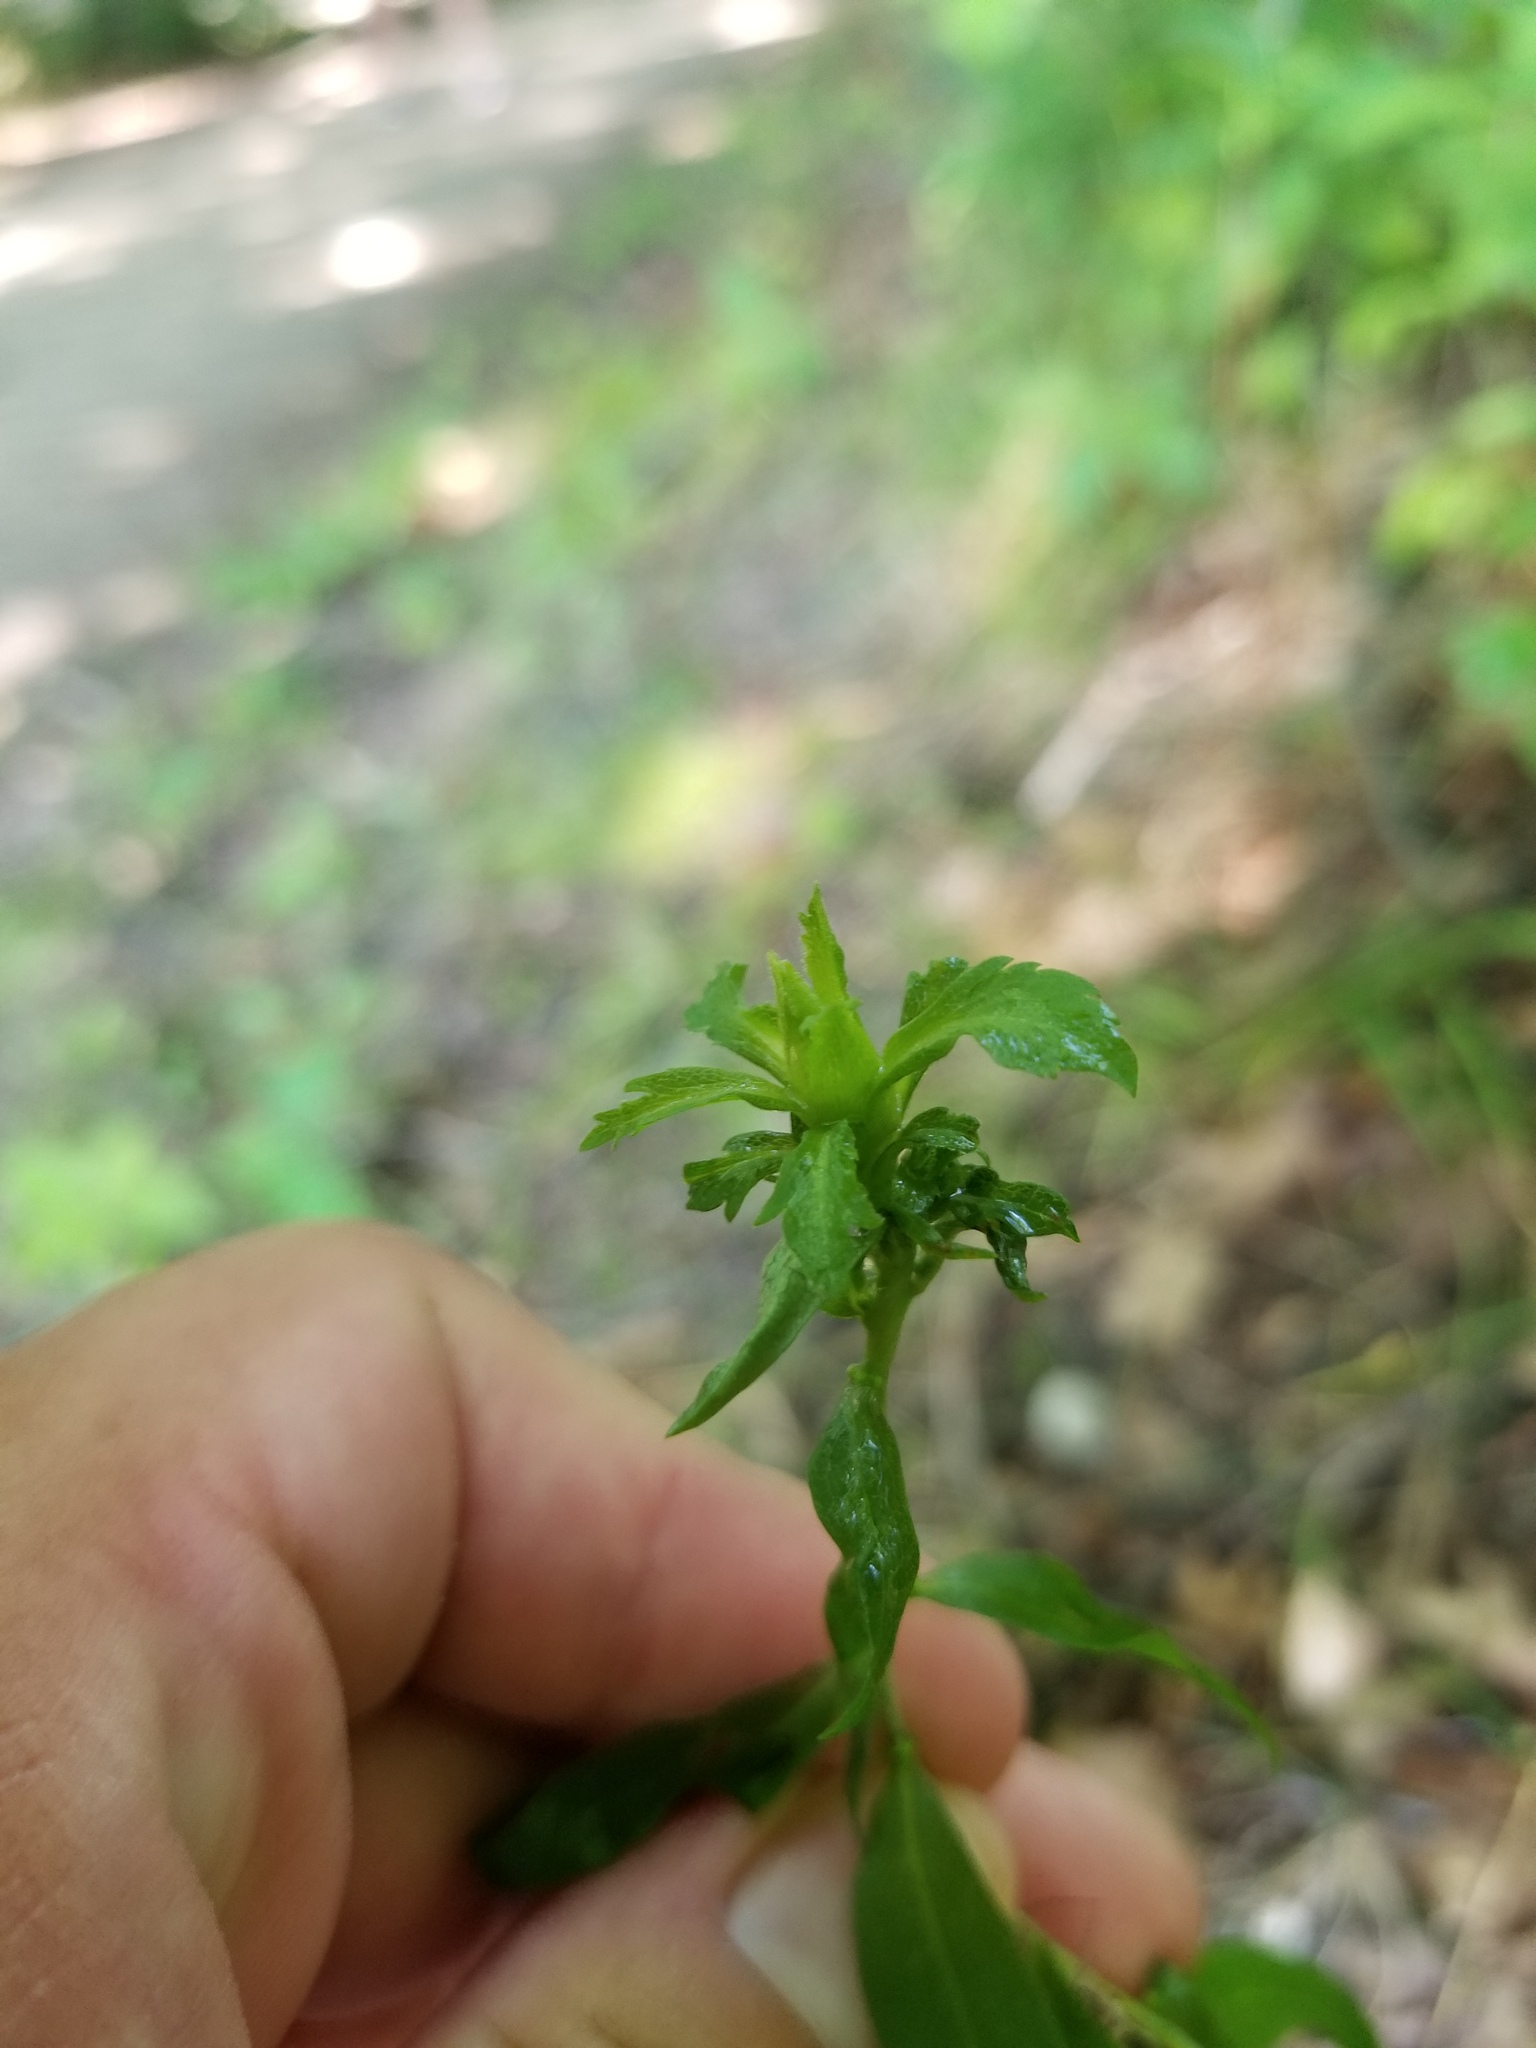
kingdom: Plantae
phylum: Tracheophyta
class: Magnoliopsida
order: Asterales
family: Asteraceae
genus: Solidago
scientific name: Solidago caesia
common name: Woodland goldenrod
